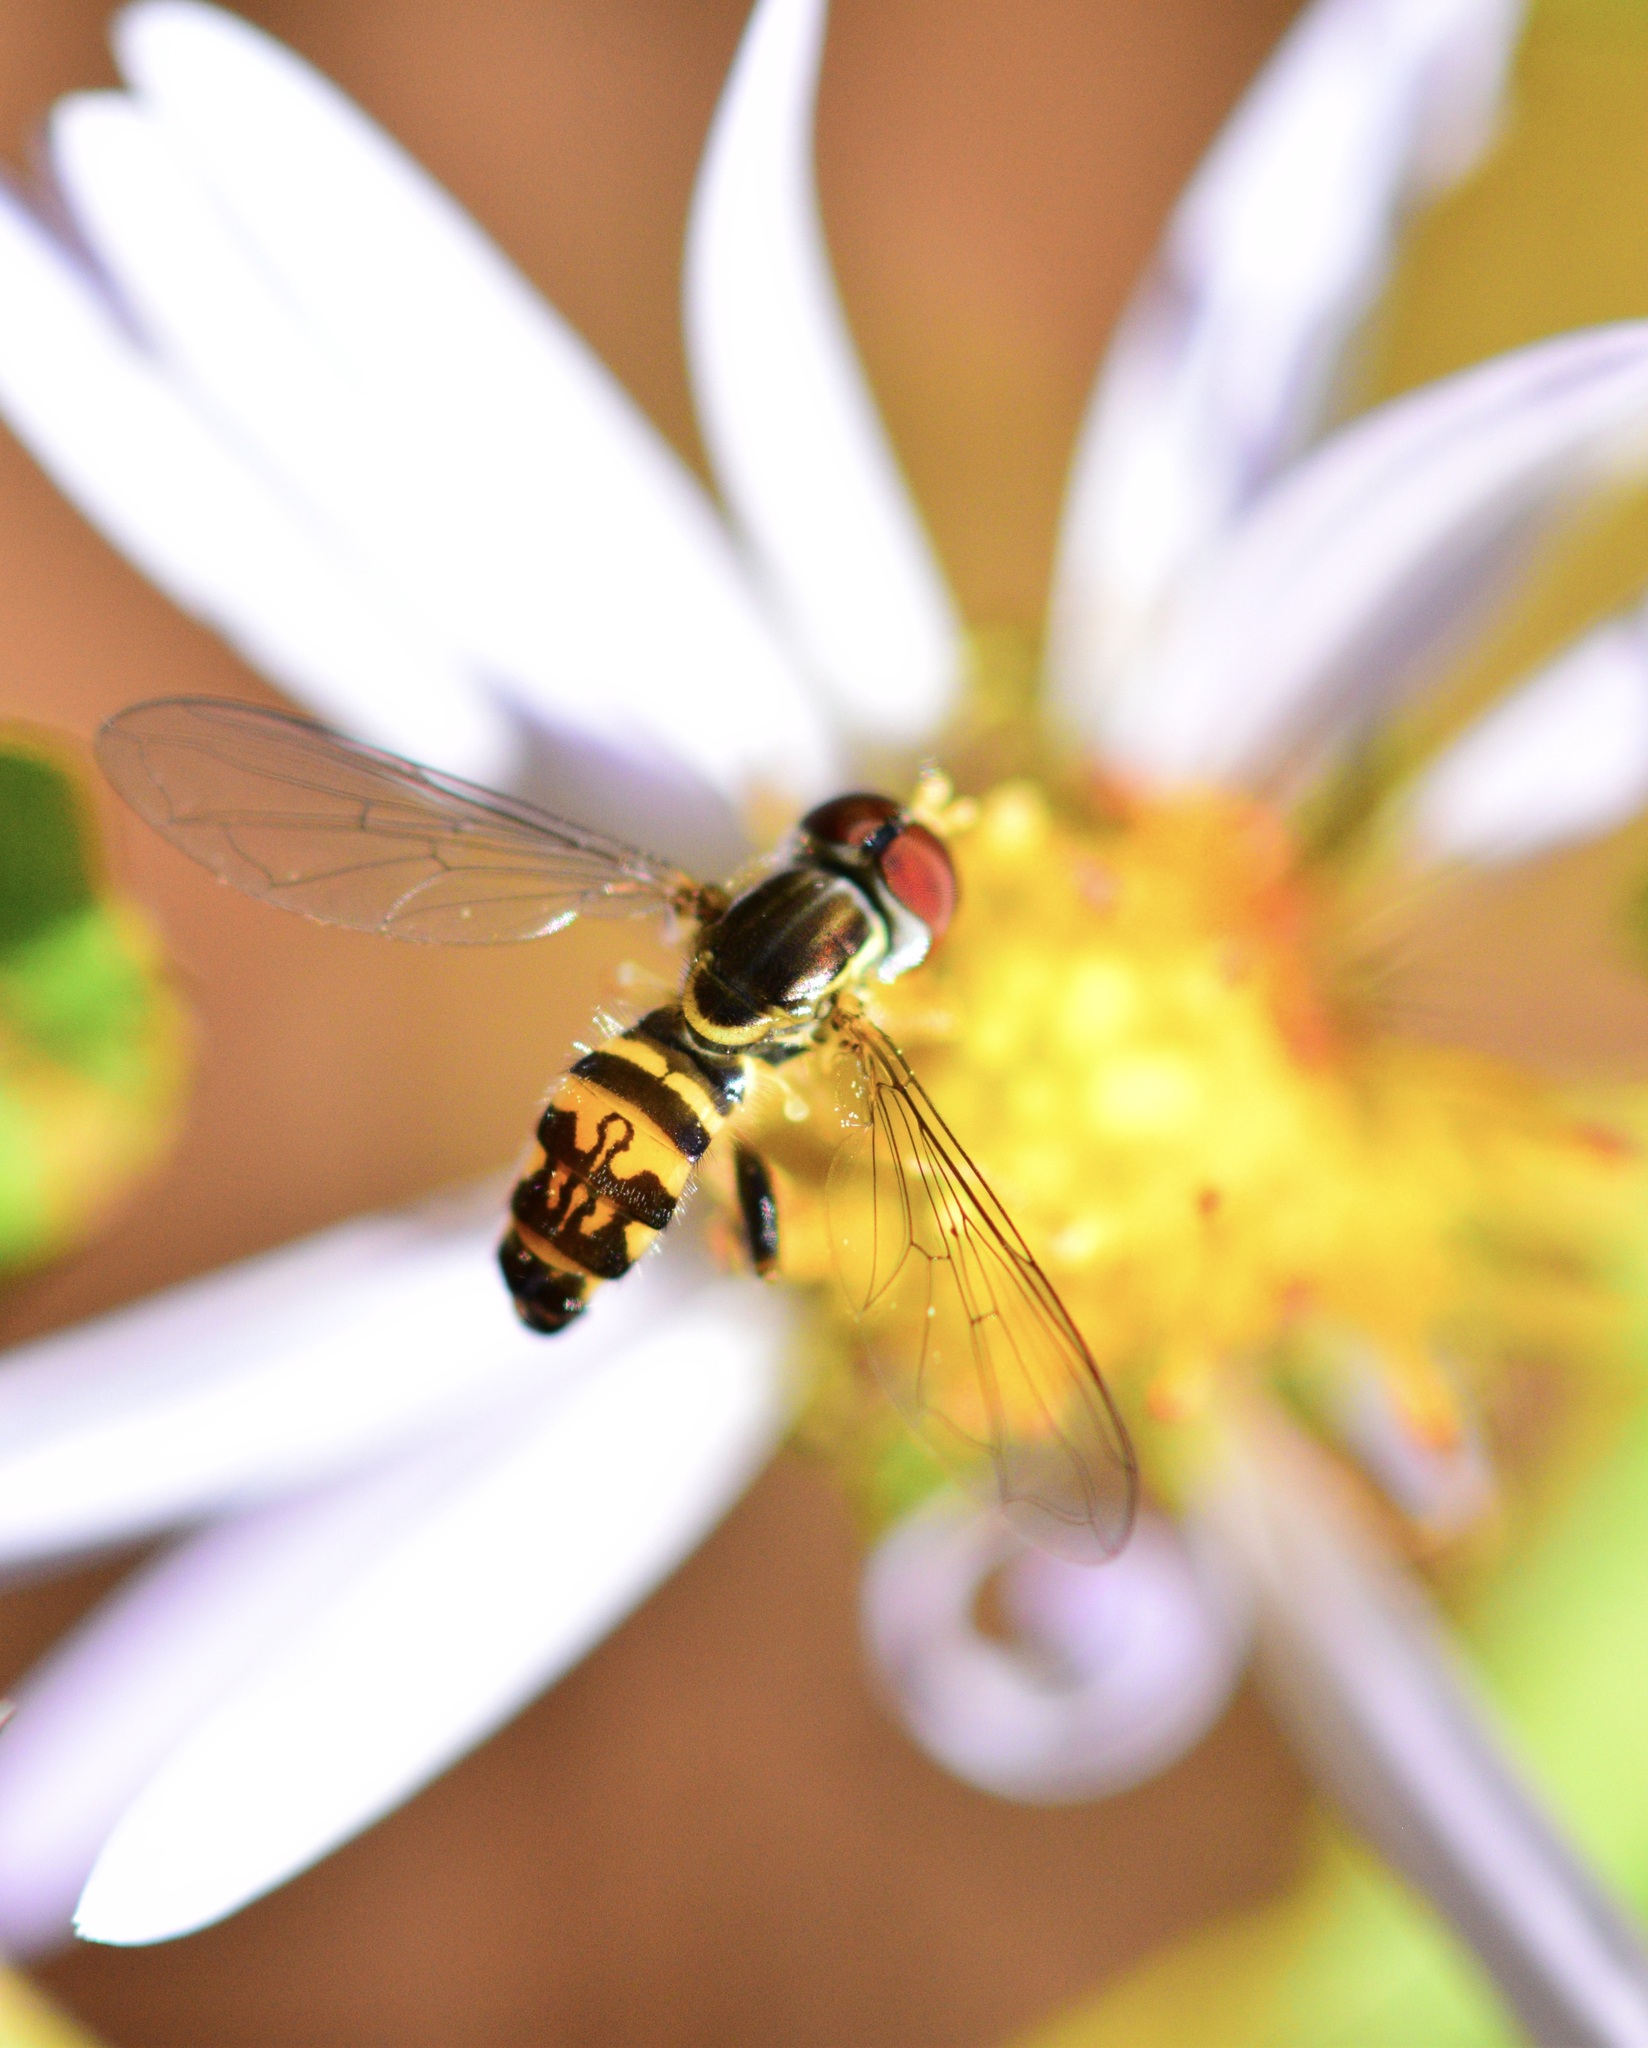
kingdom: Animalia
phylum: Arthropoda
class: Insecta
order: Diptera
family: Syrphidae
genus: Toxomerus
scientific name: Toxomerus geminatus
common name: Eastern calligrapher
